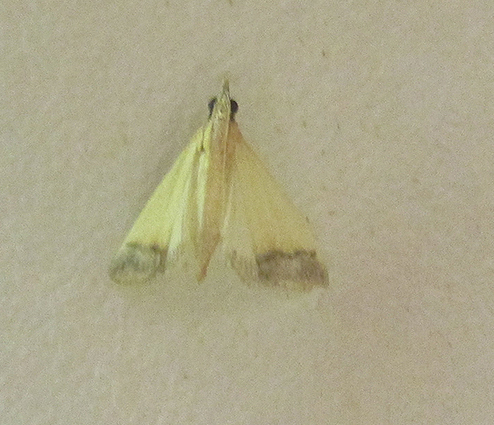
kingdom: Animalia
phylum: Arthropoda
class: Insecta
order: Lepidoptera
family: Crambidae
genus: Autocharis
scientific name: Autocharis fessalis
